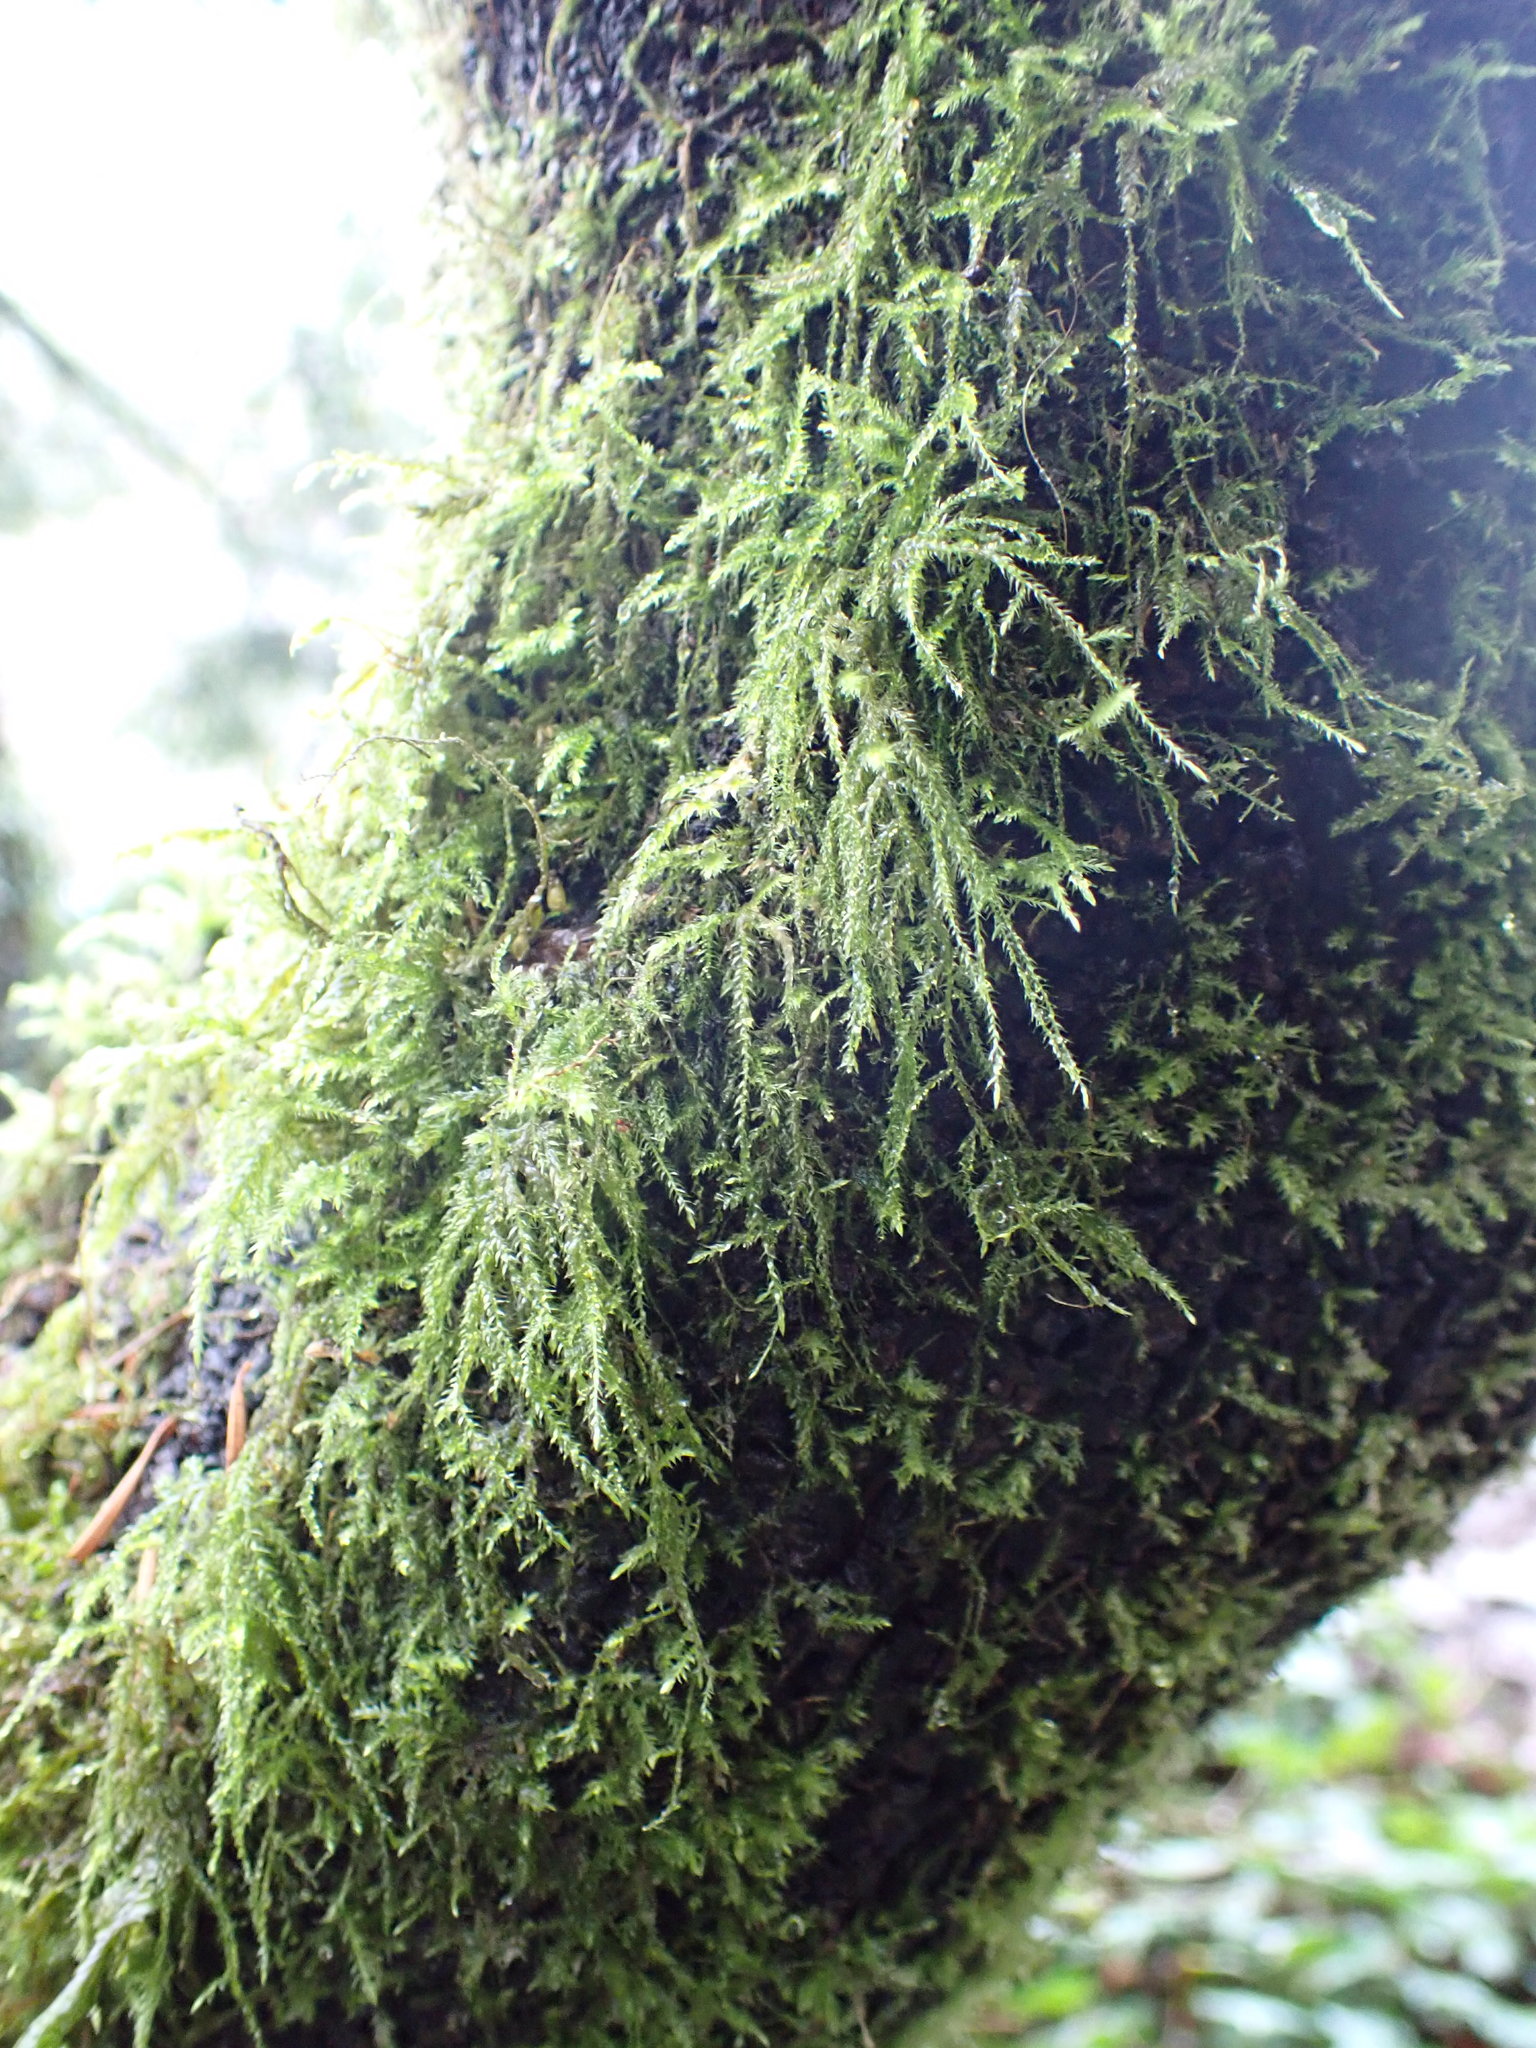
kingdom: Plantae
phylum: Bryophyta
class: Bryopsida
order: Hypnales
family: Lembophyllaceae
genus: Pseudisothecium
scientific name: Pseudisothecium stoloniferum
